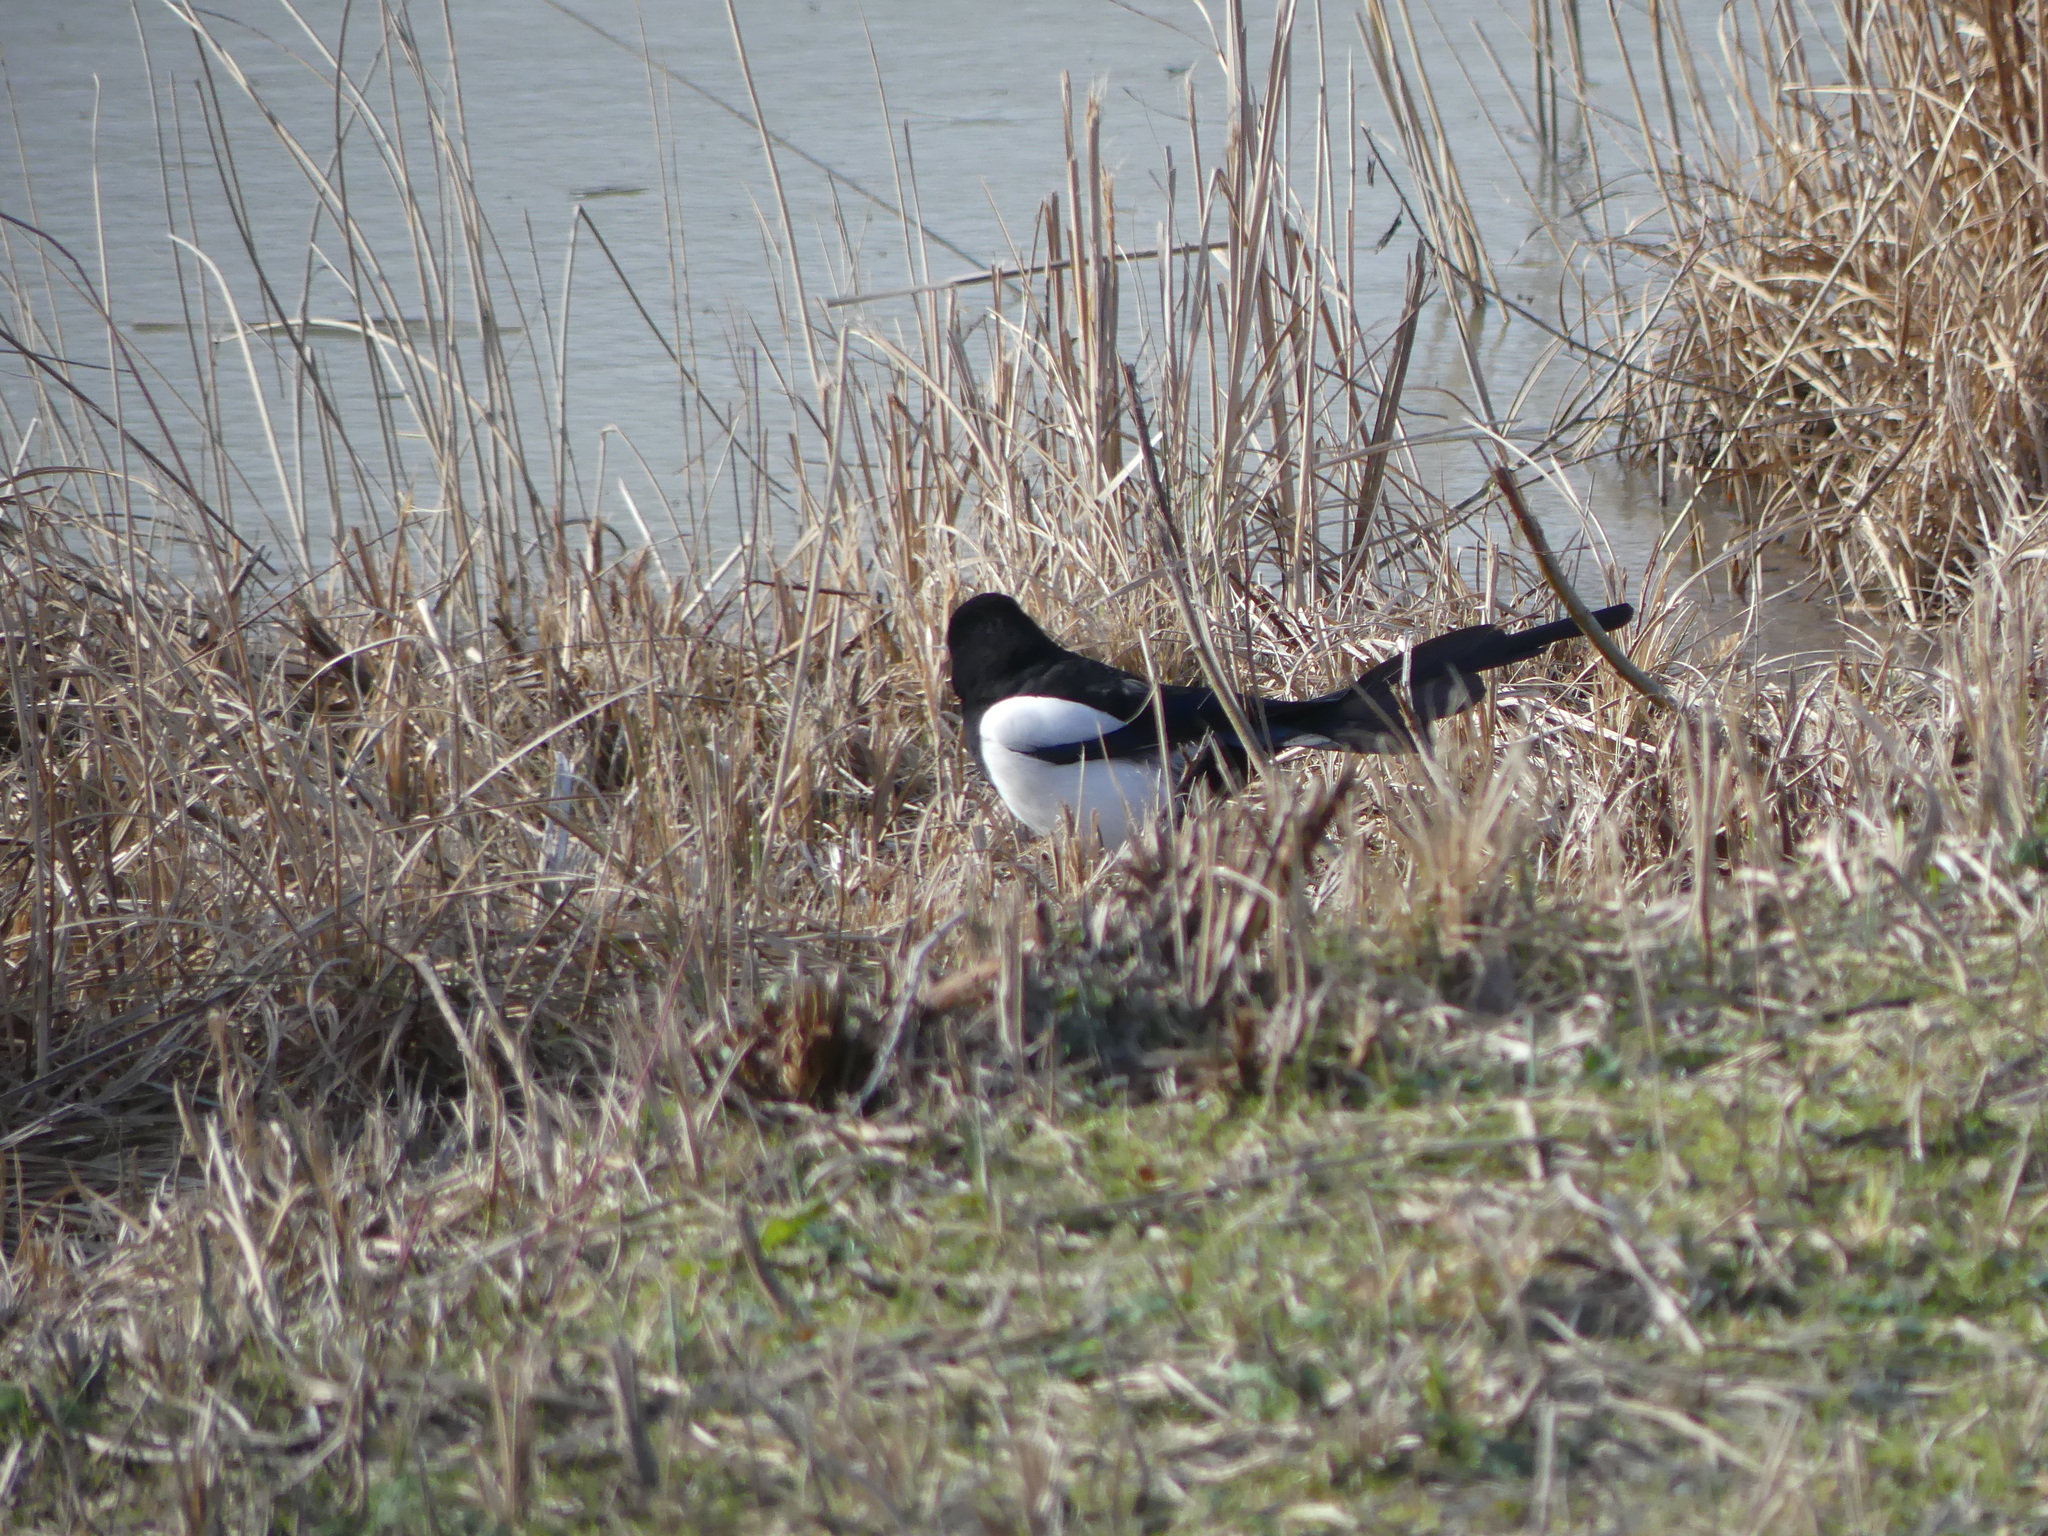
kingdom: Animalia
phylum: Chordata
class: Aves
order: Passeriformes
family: Corvidae
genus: Pica
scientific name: Pica pica
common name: Eurasian magpie
